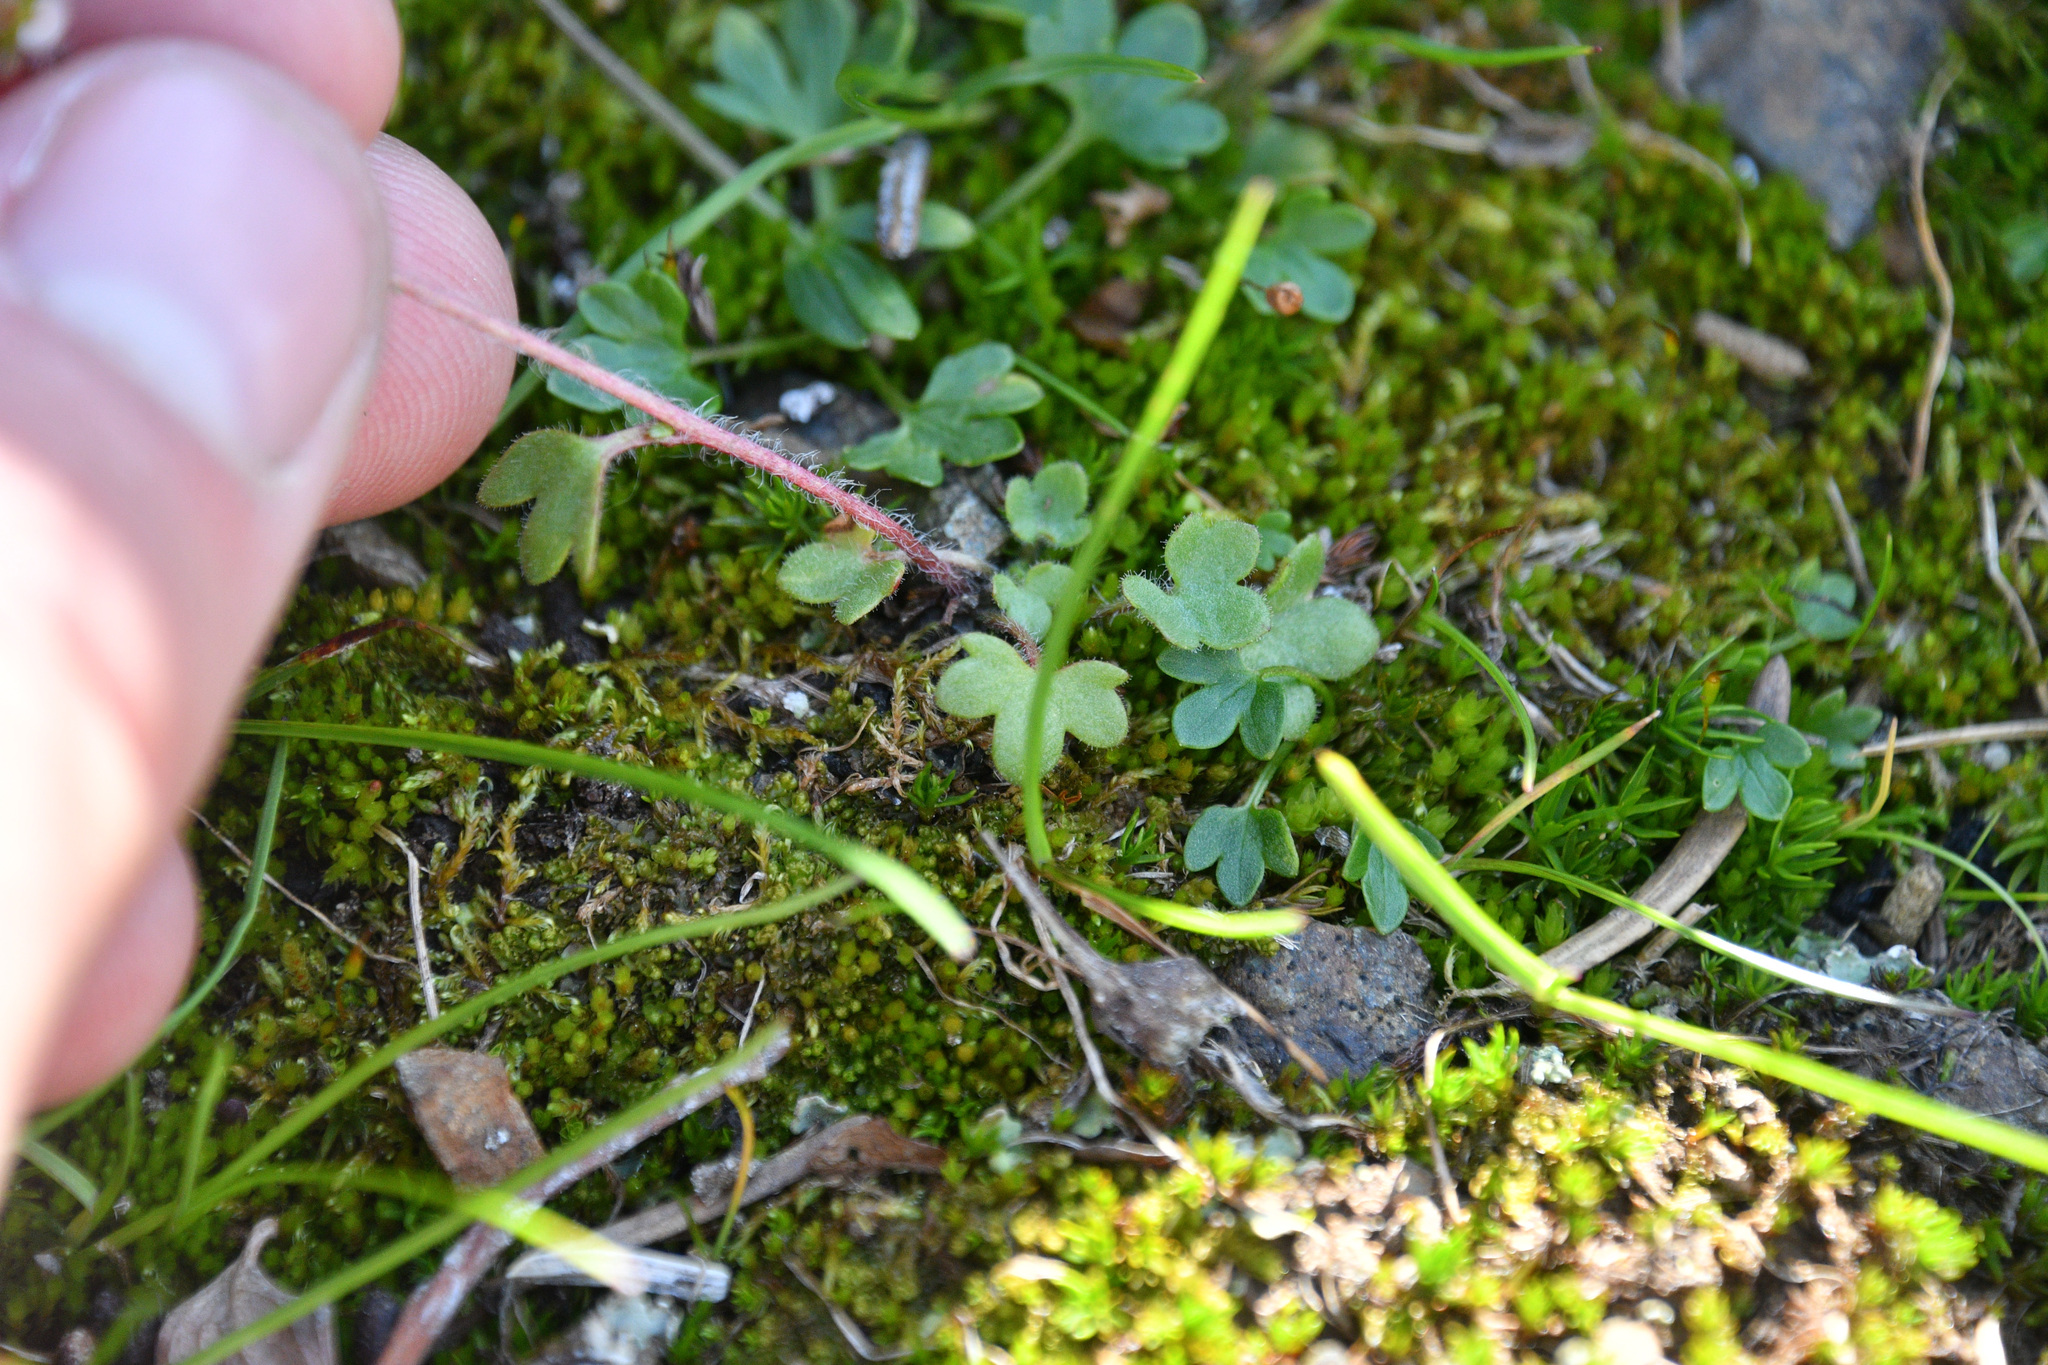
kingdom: Plantae
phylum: Tracheophyta
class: Magnoliopsida
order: Saxifragales
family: Saxifragaceae
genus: Saxifraga
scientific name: Saxifraga hyperborea
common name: Arctic saxifrage
